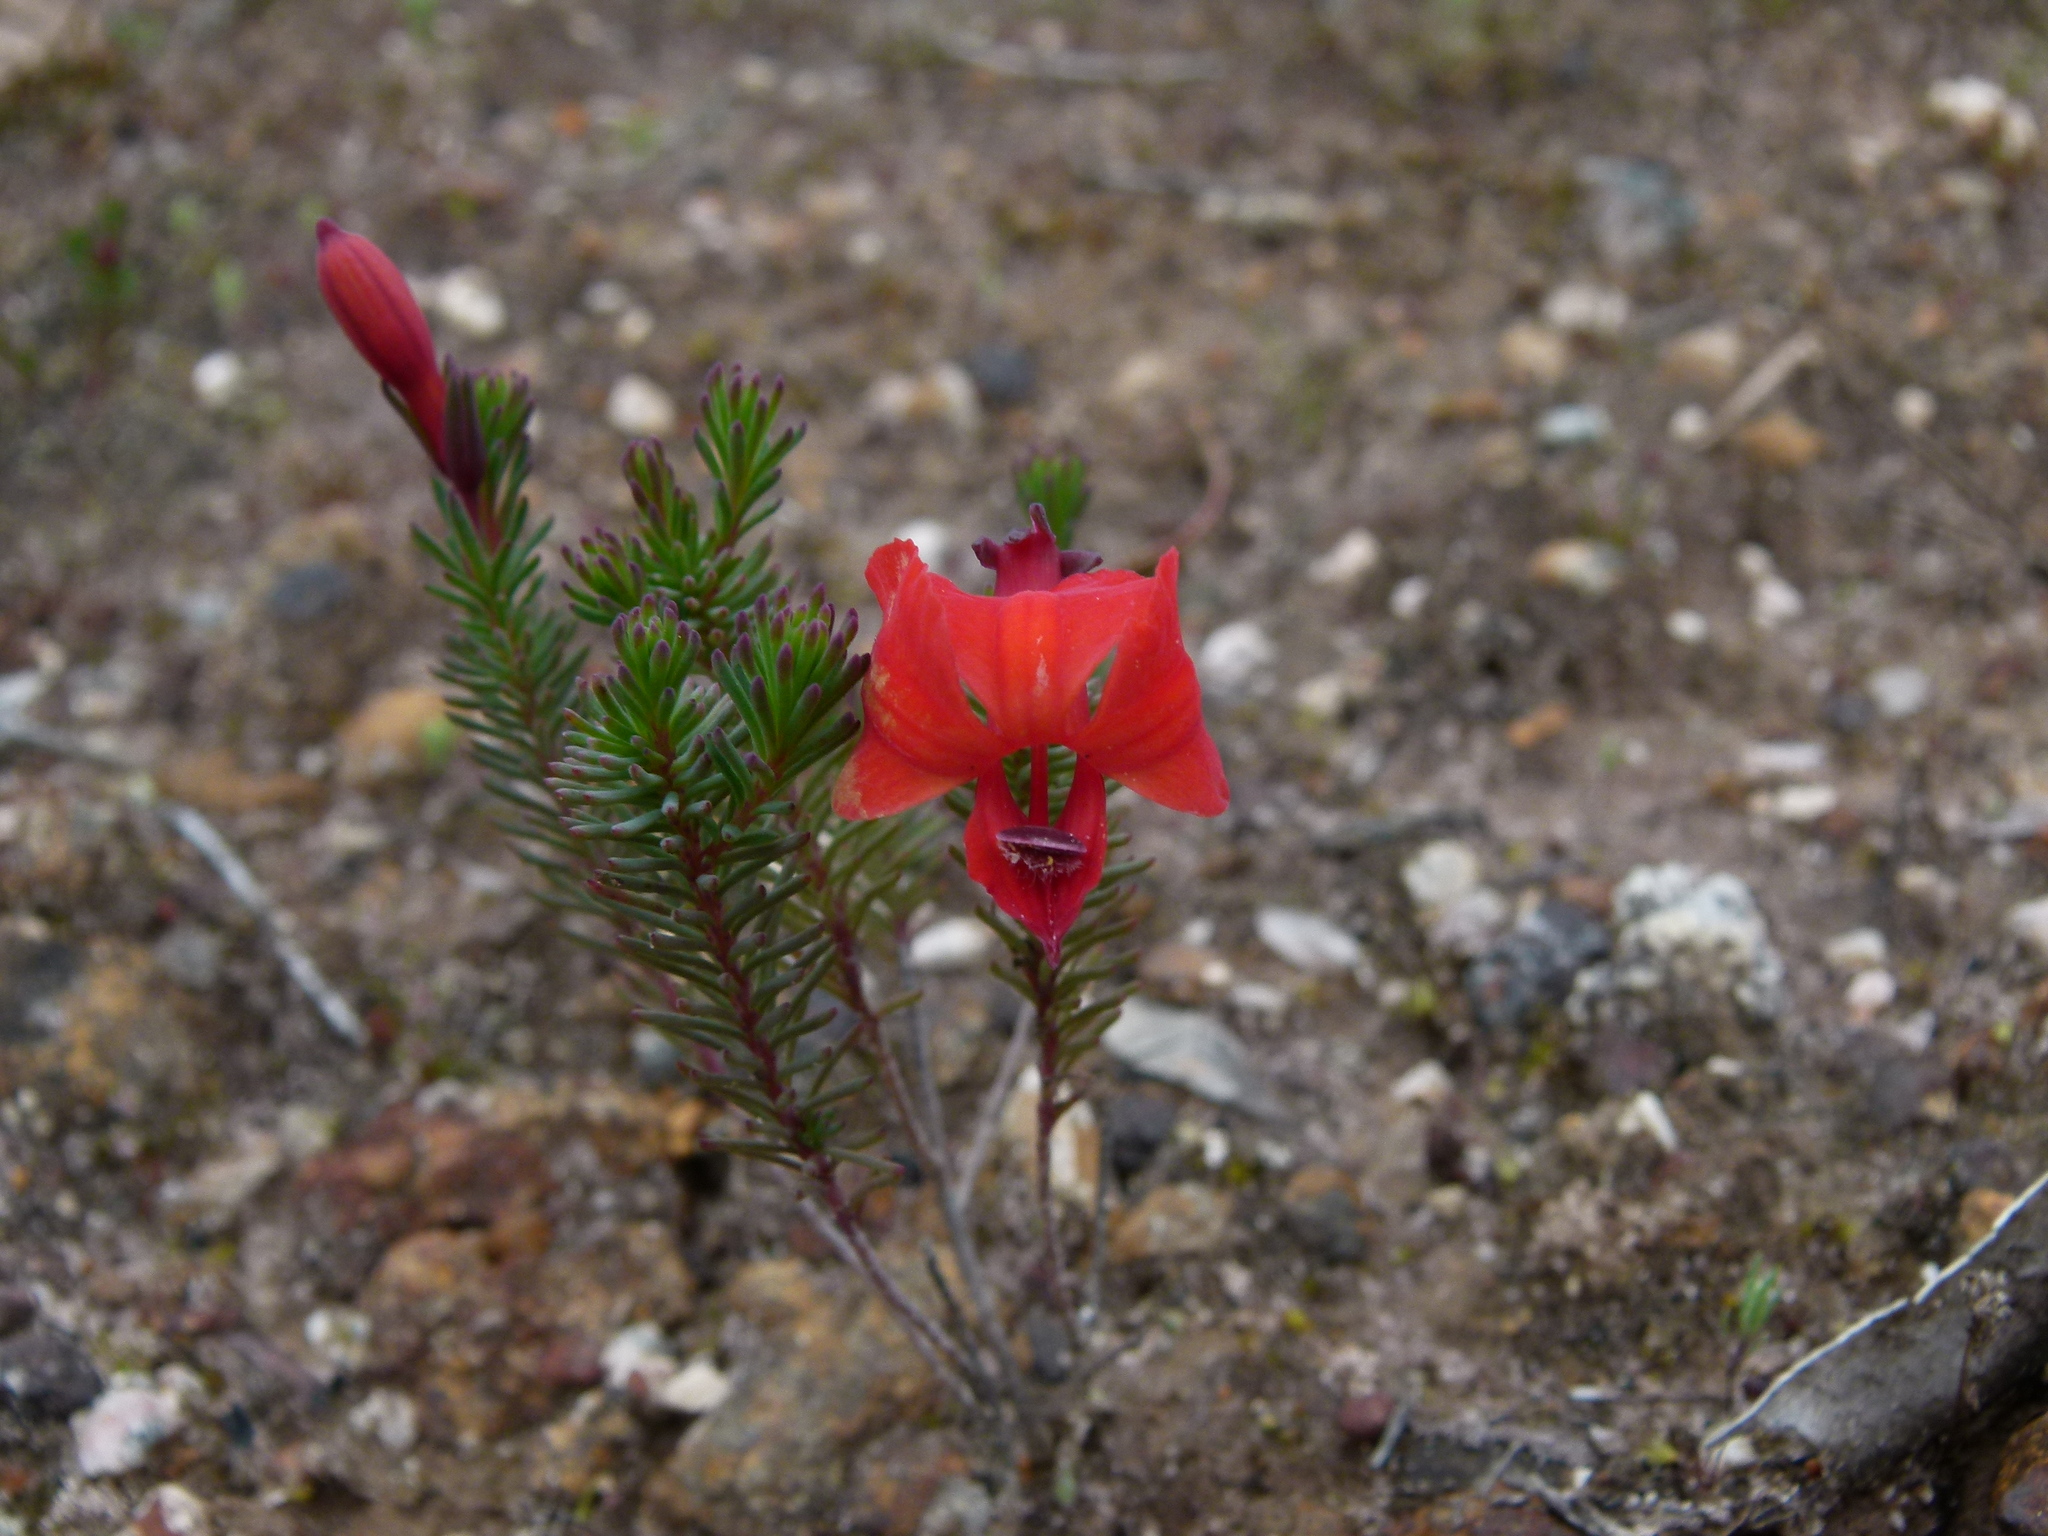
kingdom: Plantae
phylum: Tracheophyta
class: Magnoliopsida
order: Asterales
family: Goodeniaceae
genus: Lechenaultia
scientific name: Lechenaultia formosa
